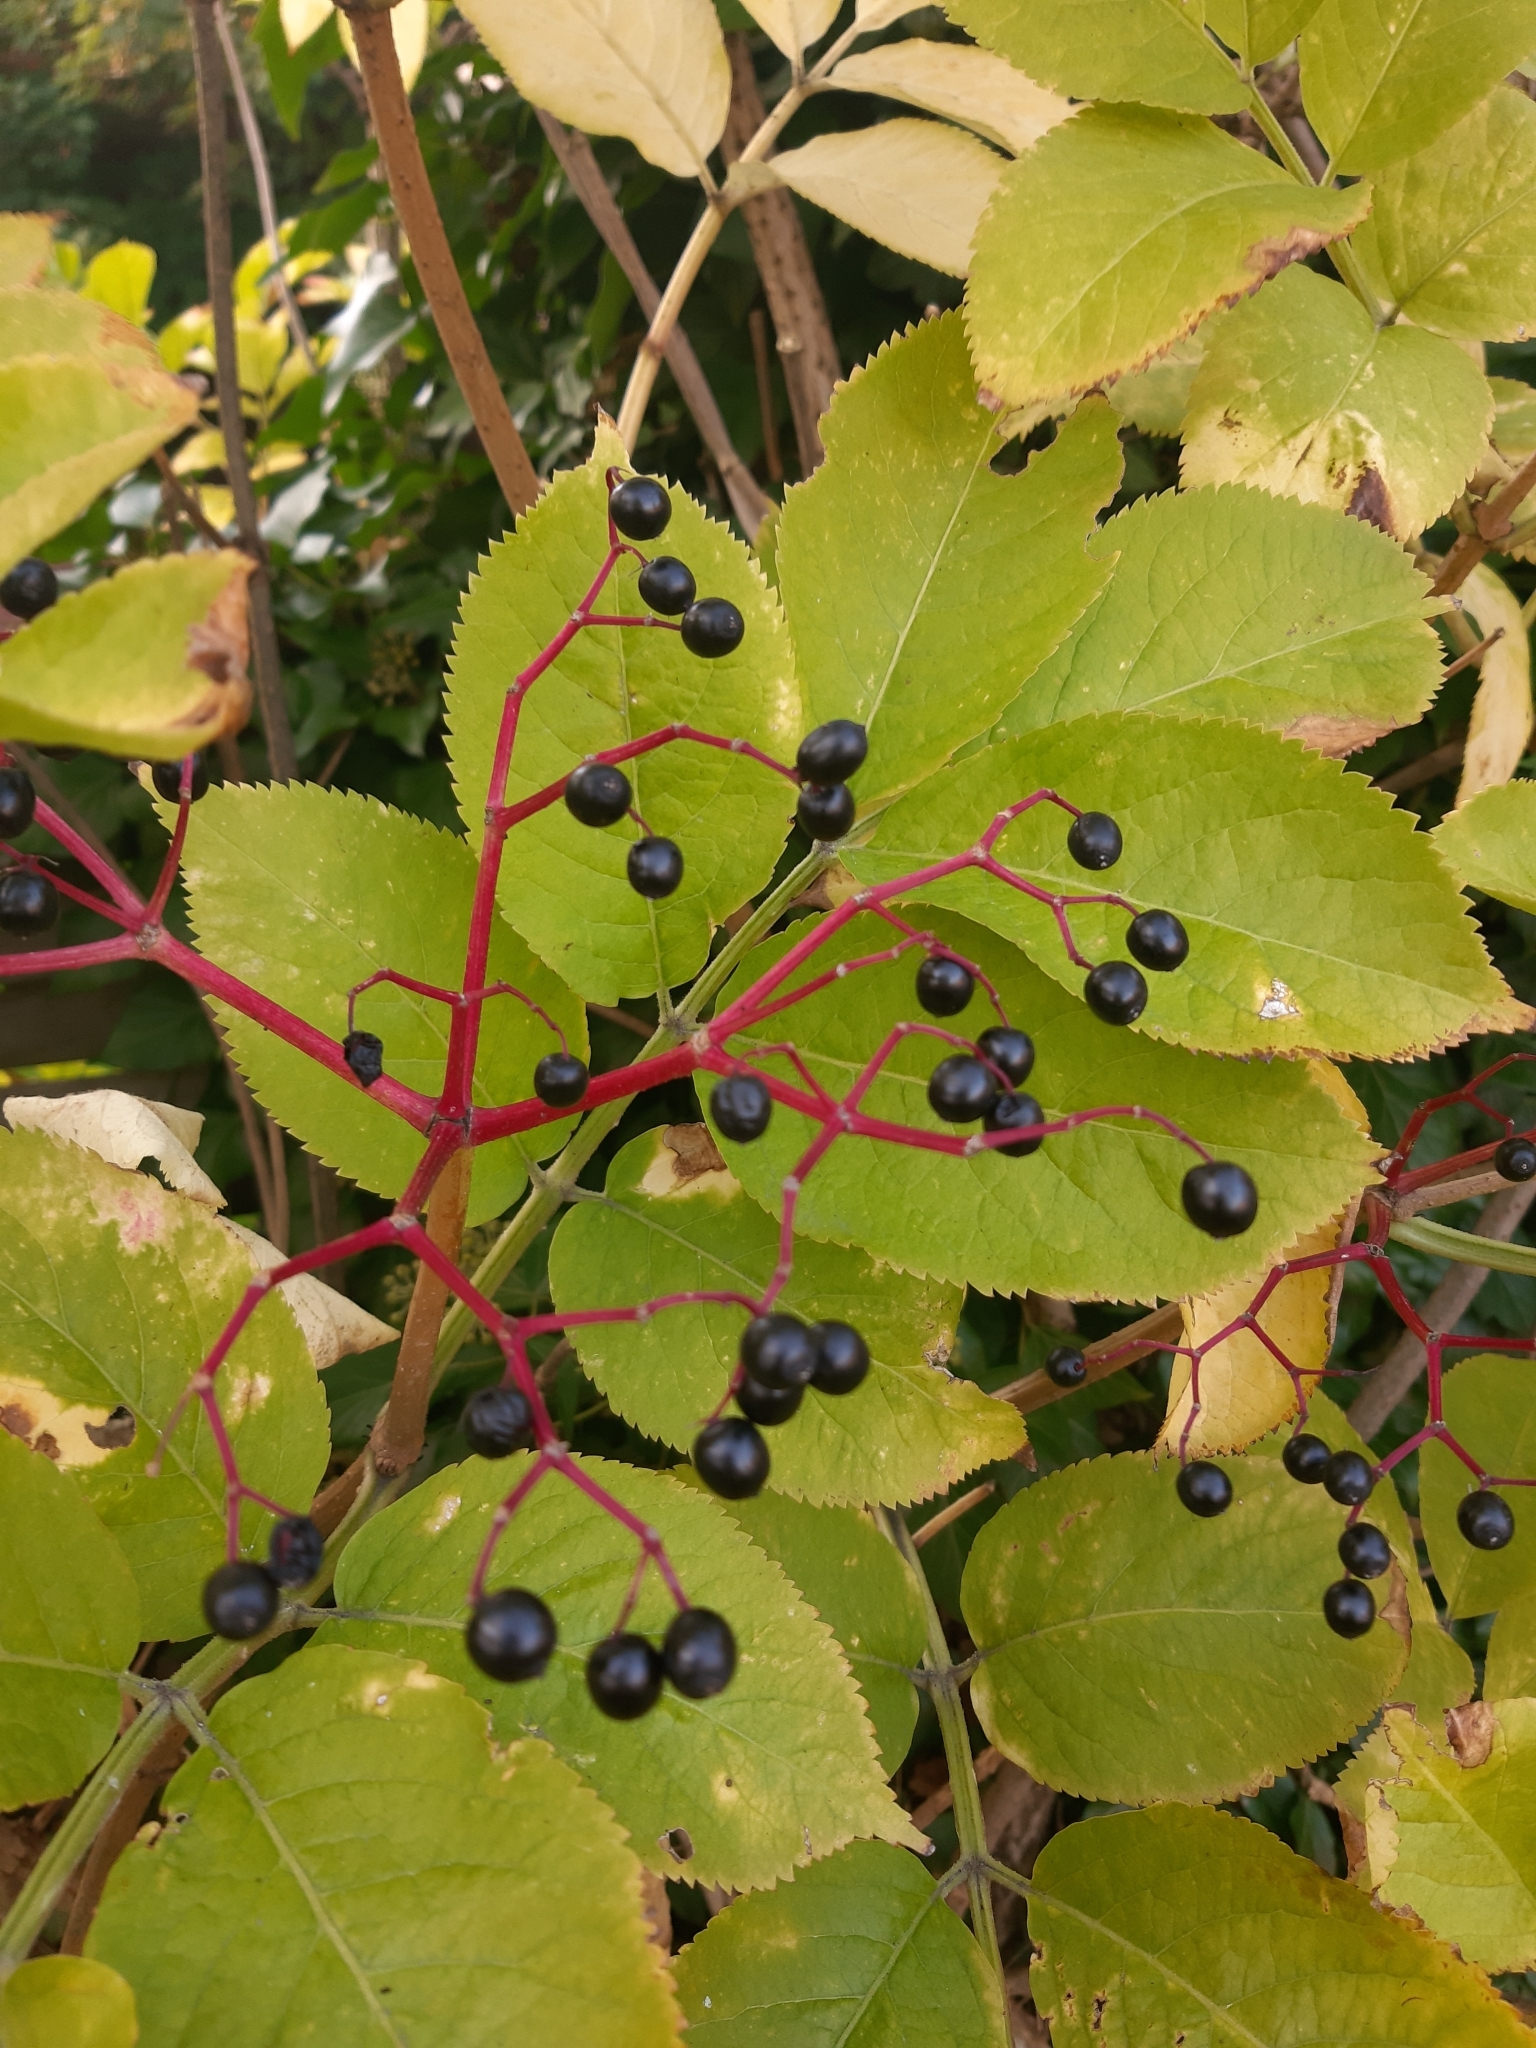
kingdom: Plantae
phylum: Tracheophyta
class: Magnoliopsida
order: Dipsacales
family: Viburnaceae
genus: Sambucus
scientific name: Sambucus nigra
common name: Elder
